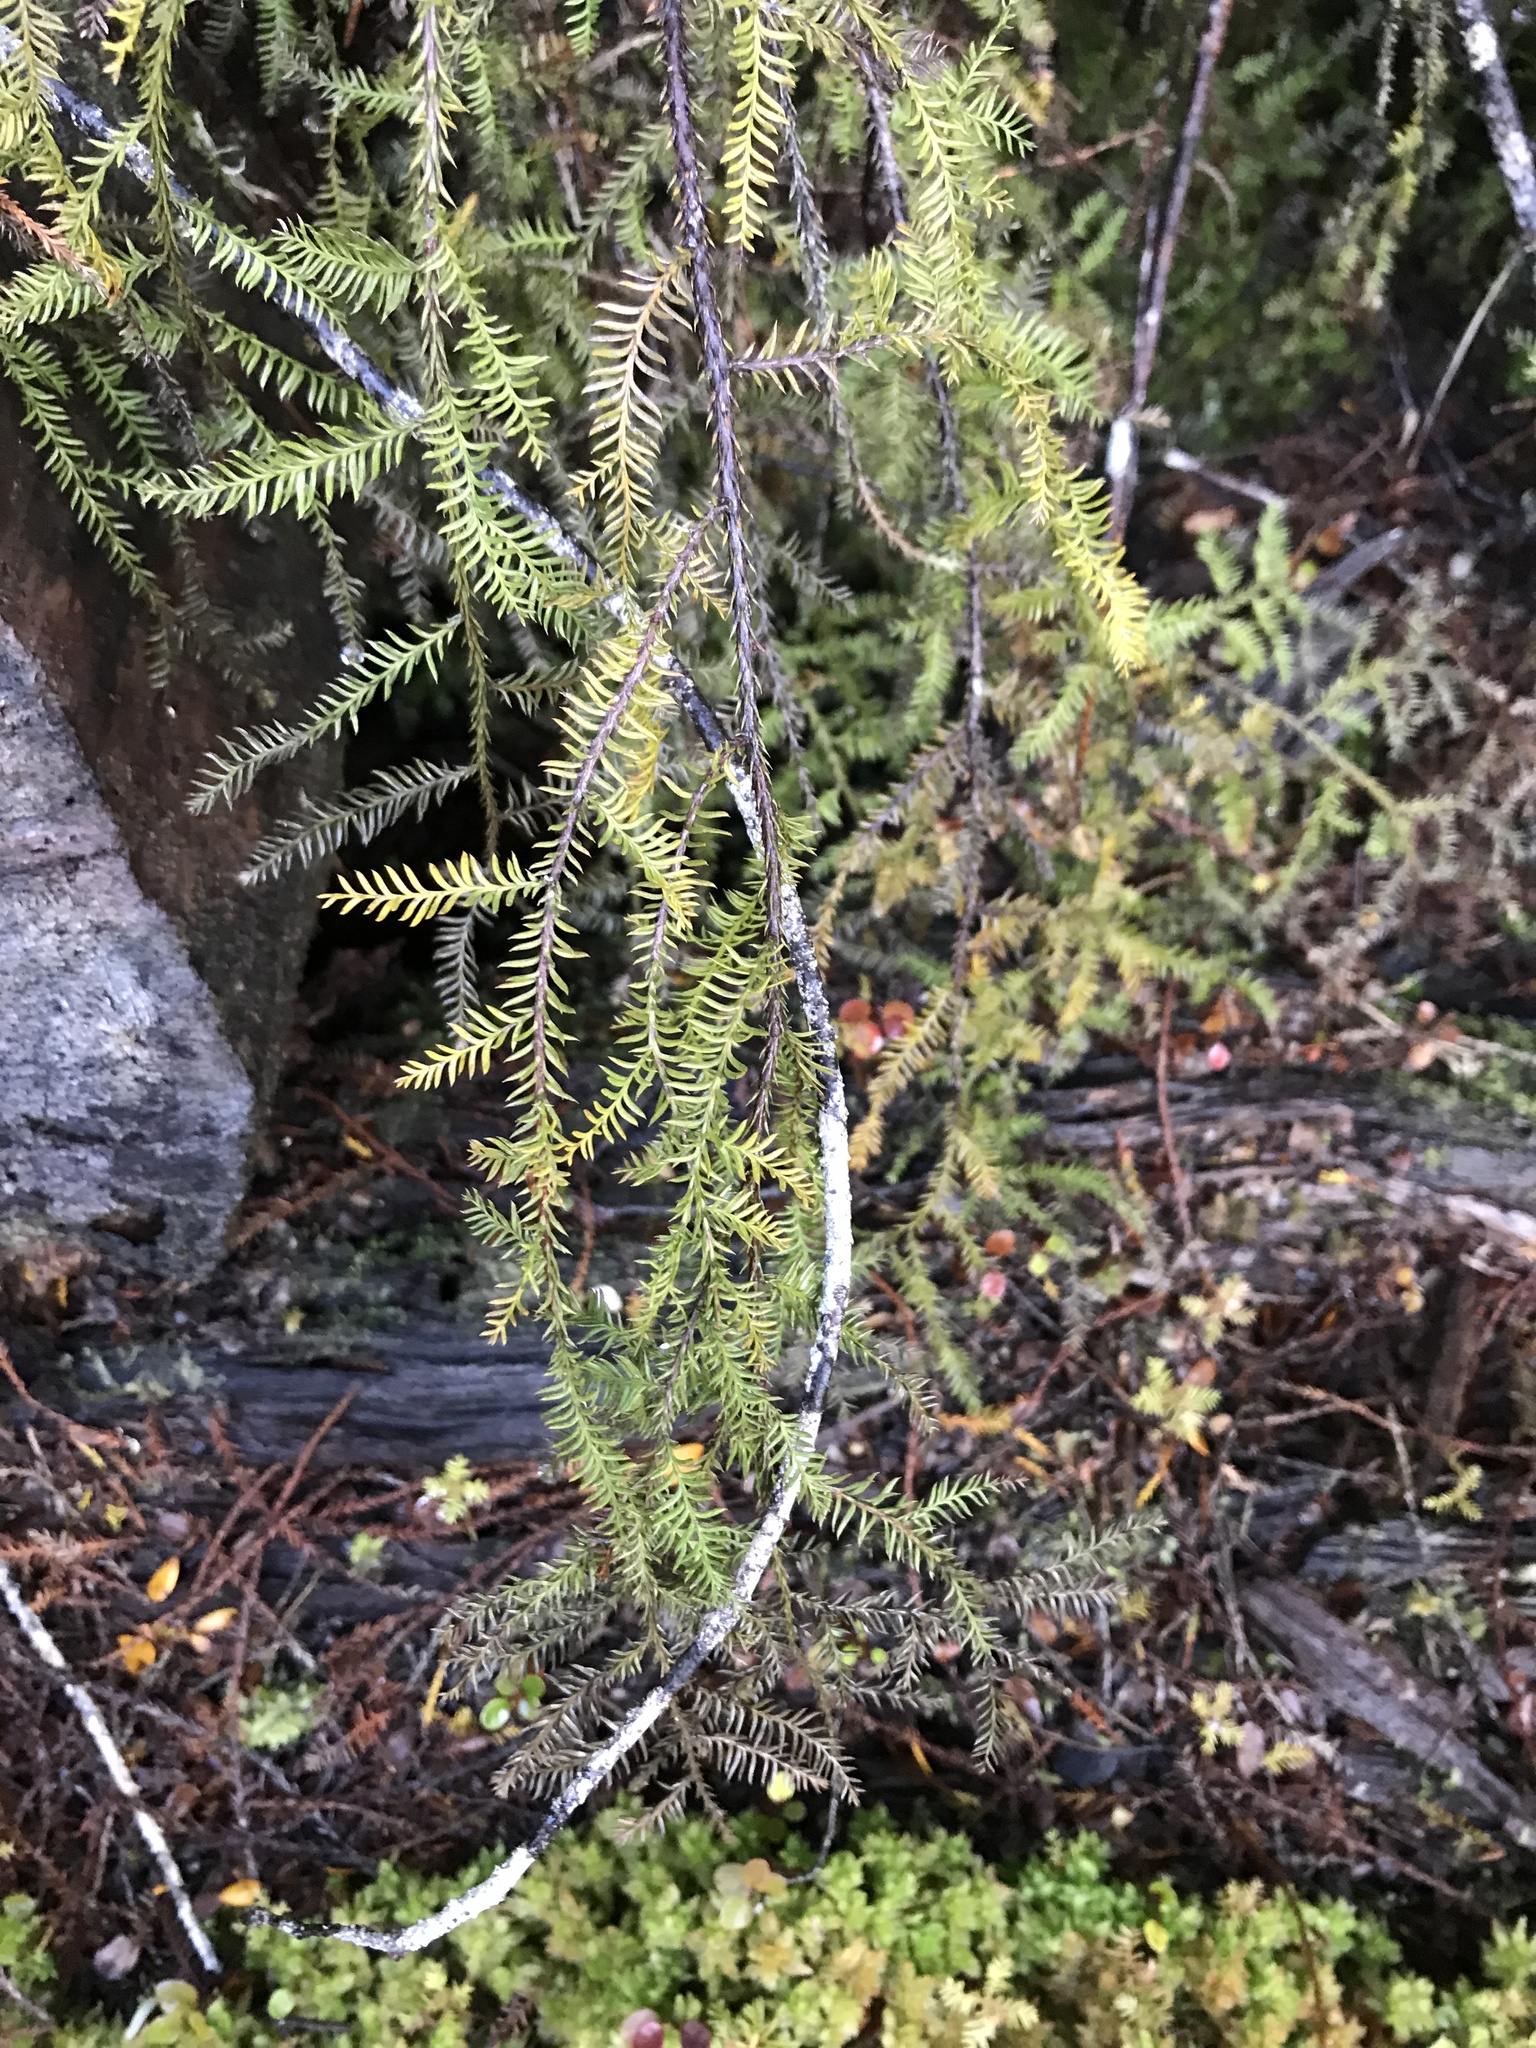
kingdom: Plantae
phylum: Tracheophyta
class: Pinopsida
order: Pinales
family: Podocarpaceae
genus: Dacrycarpus
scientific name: Dacrycarpus dacrydioides
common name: White pine
